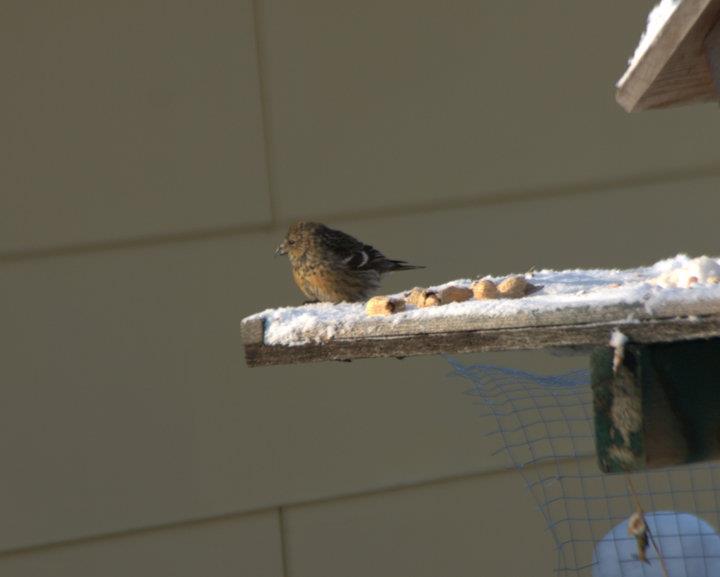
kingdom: Animalia
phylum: Chordata
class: Aves
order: Passeriformes
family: Fringillidae
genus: Loxia
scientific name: Loxia leucoptera
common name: Two-barred crossbill
